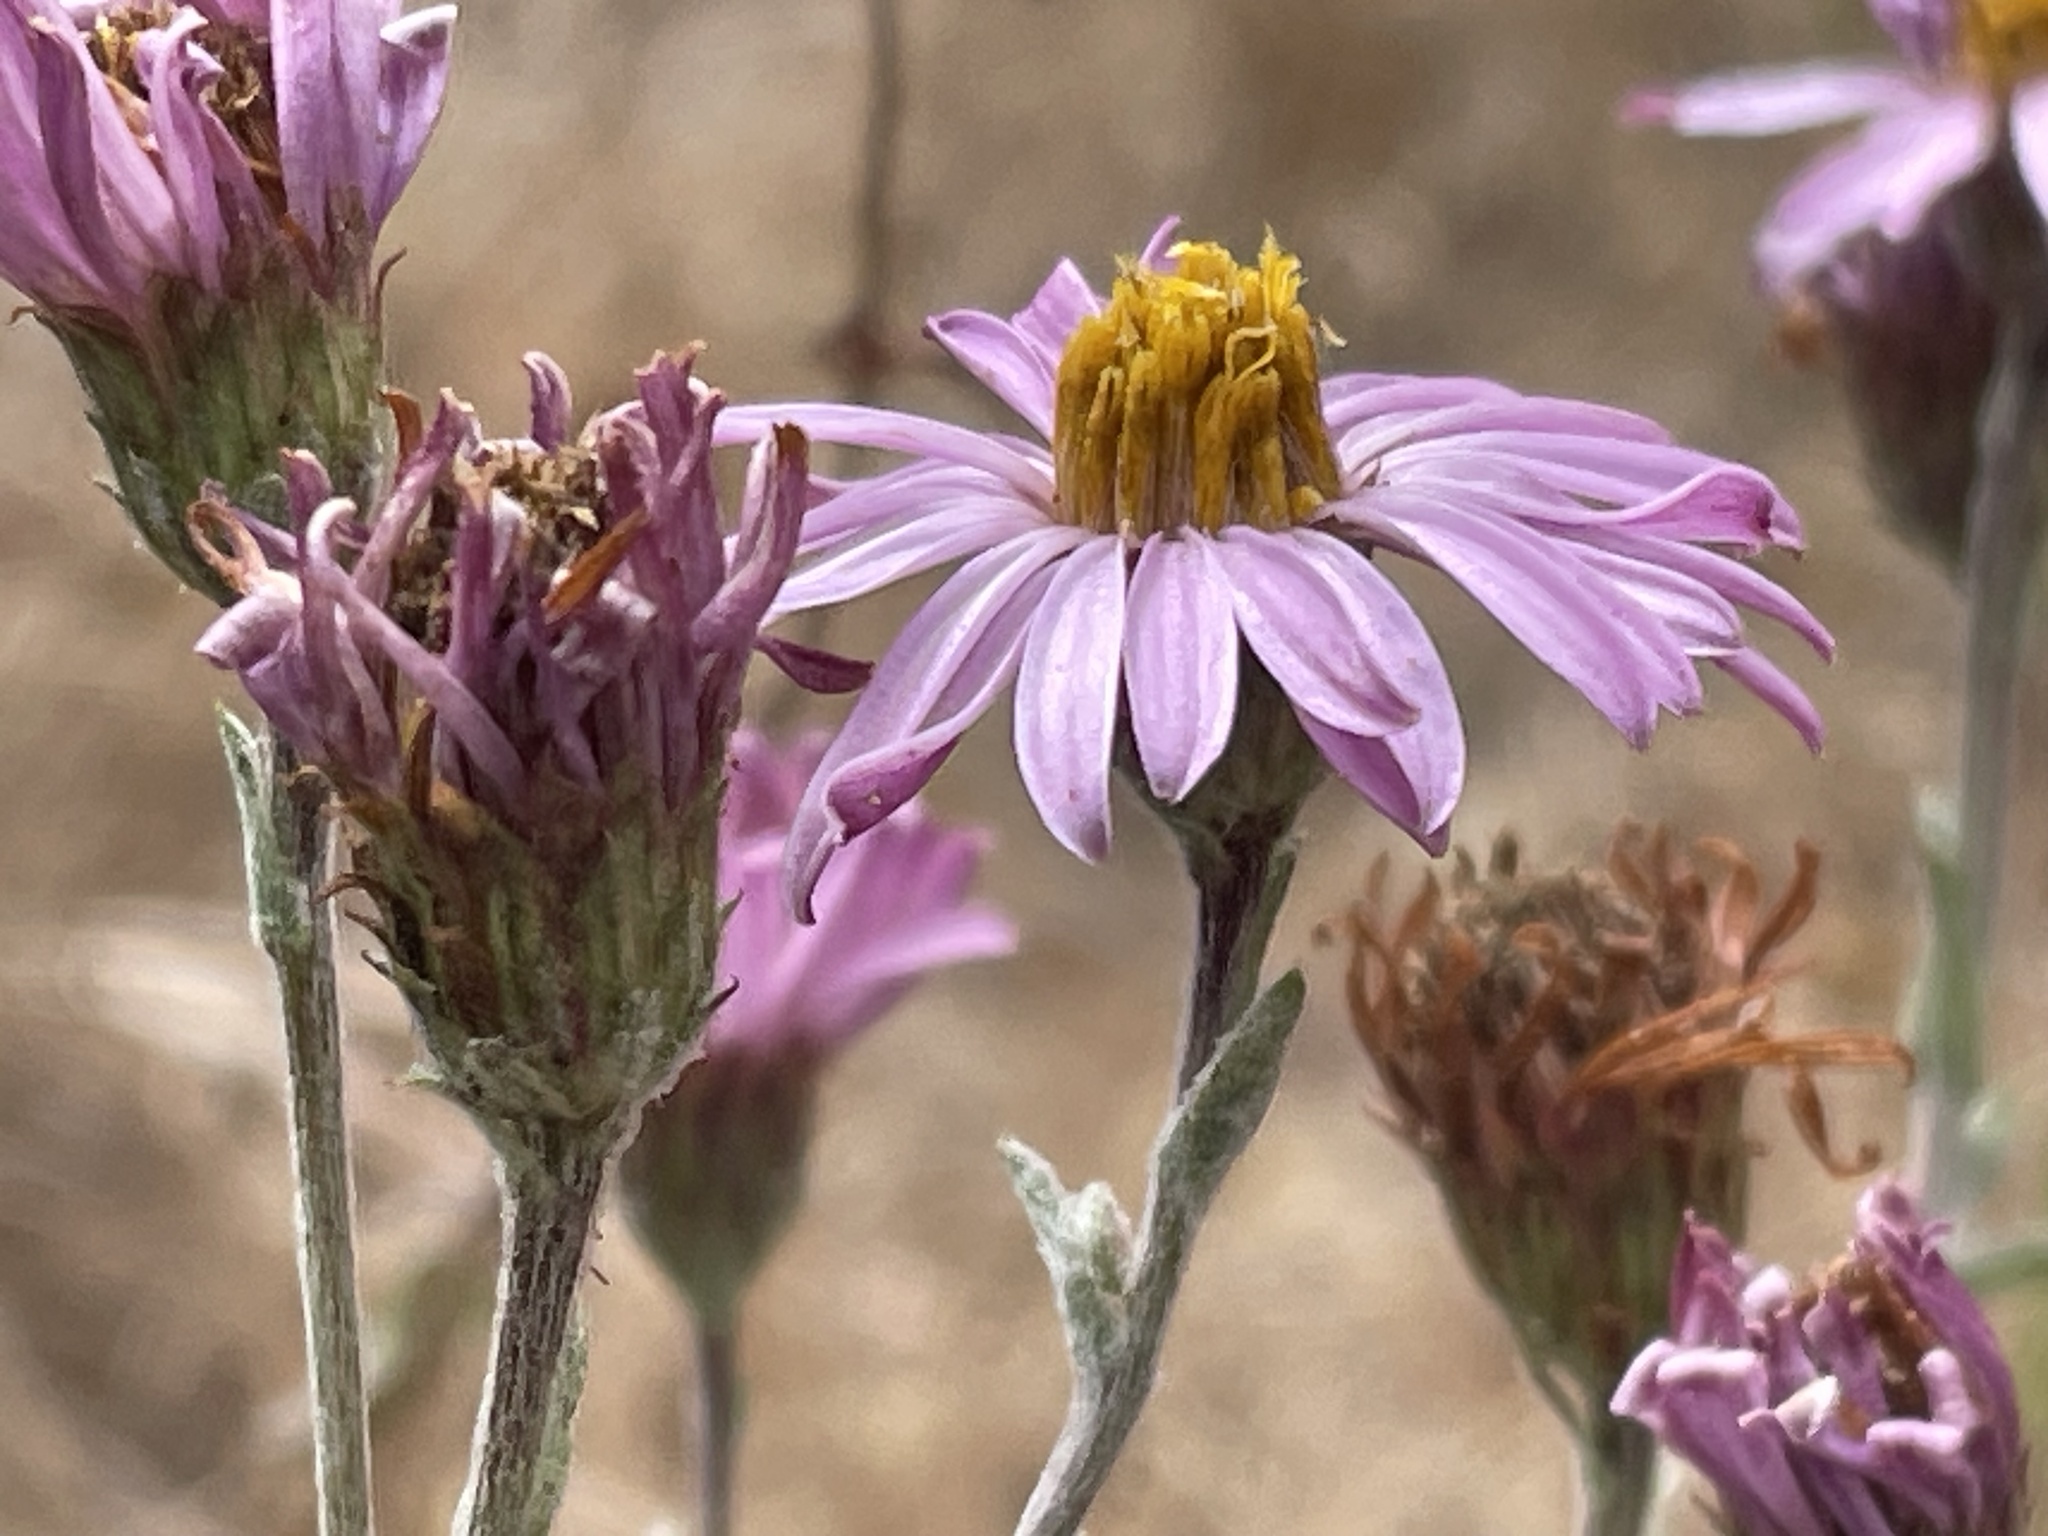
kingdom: Plantae
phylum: Tracheophyta
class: Magnoliopsida
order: Asterales
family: Asteraceae
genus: Corethrogyne
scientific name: Corethrogyne filaginifolia
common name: Sand-aster
